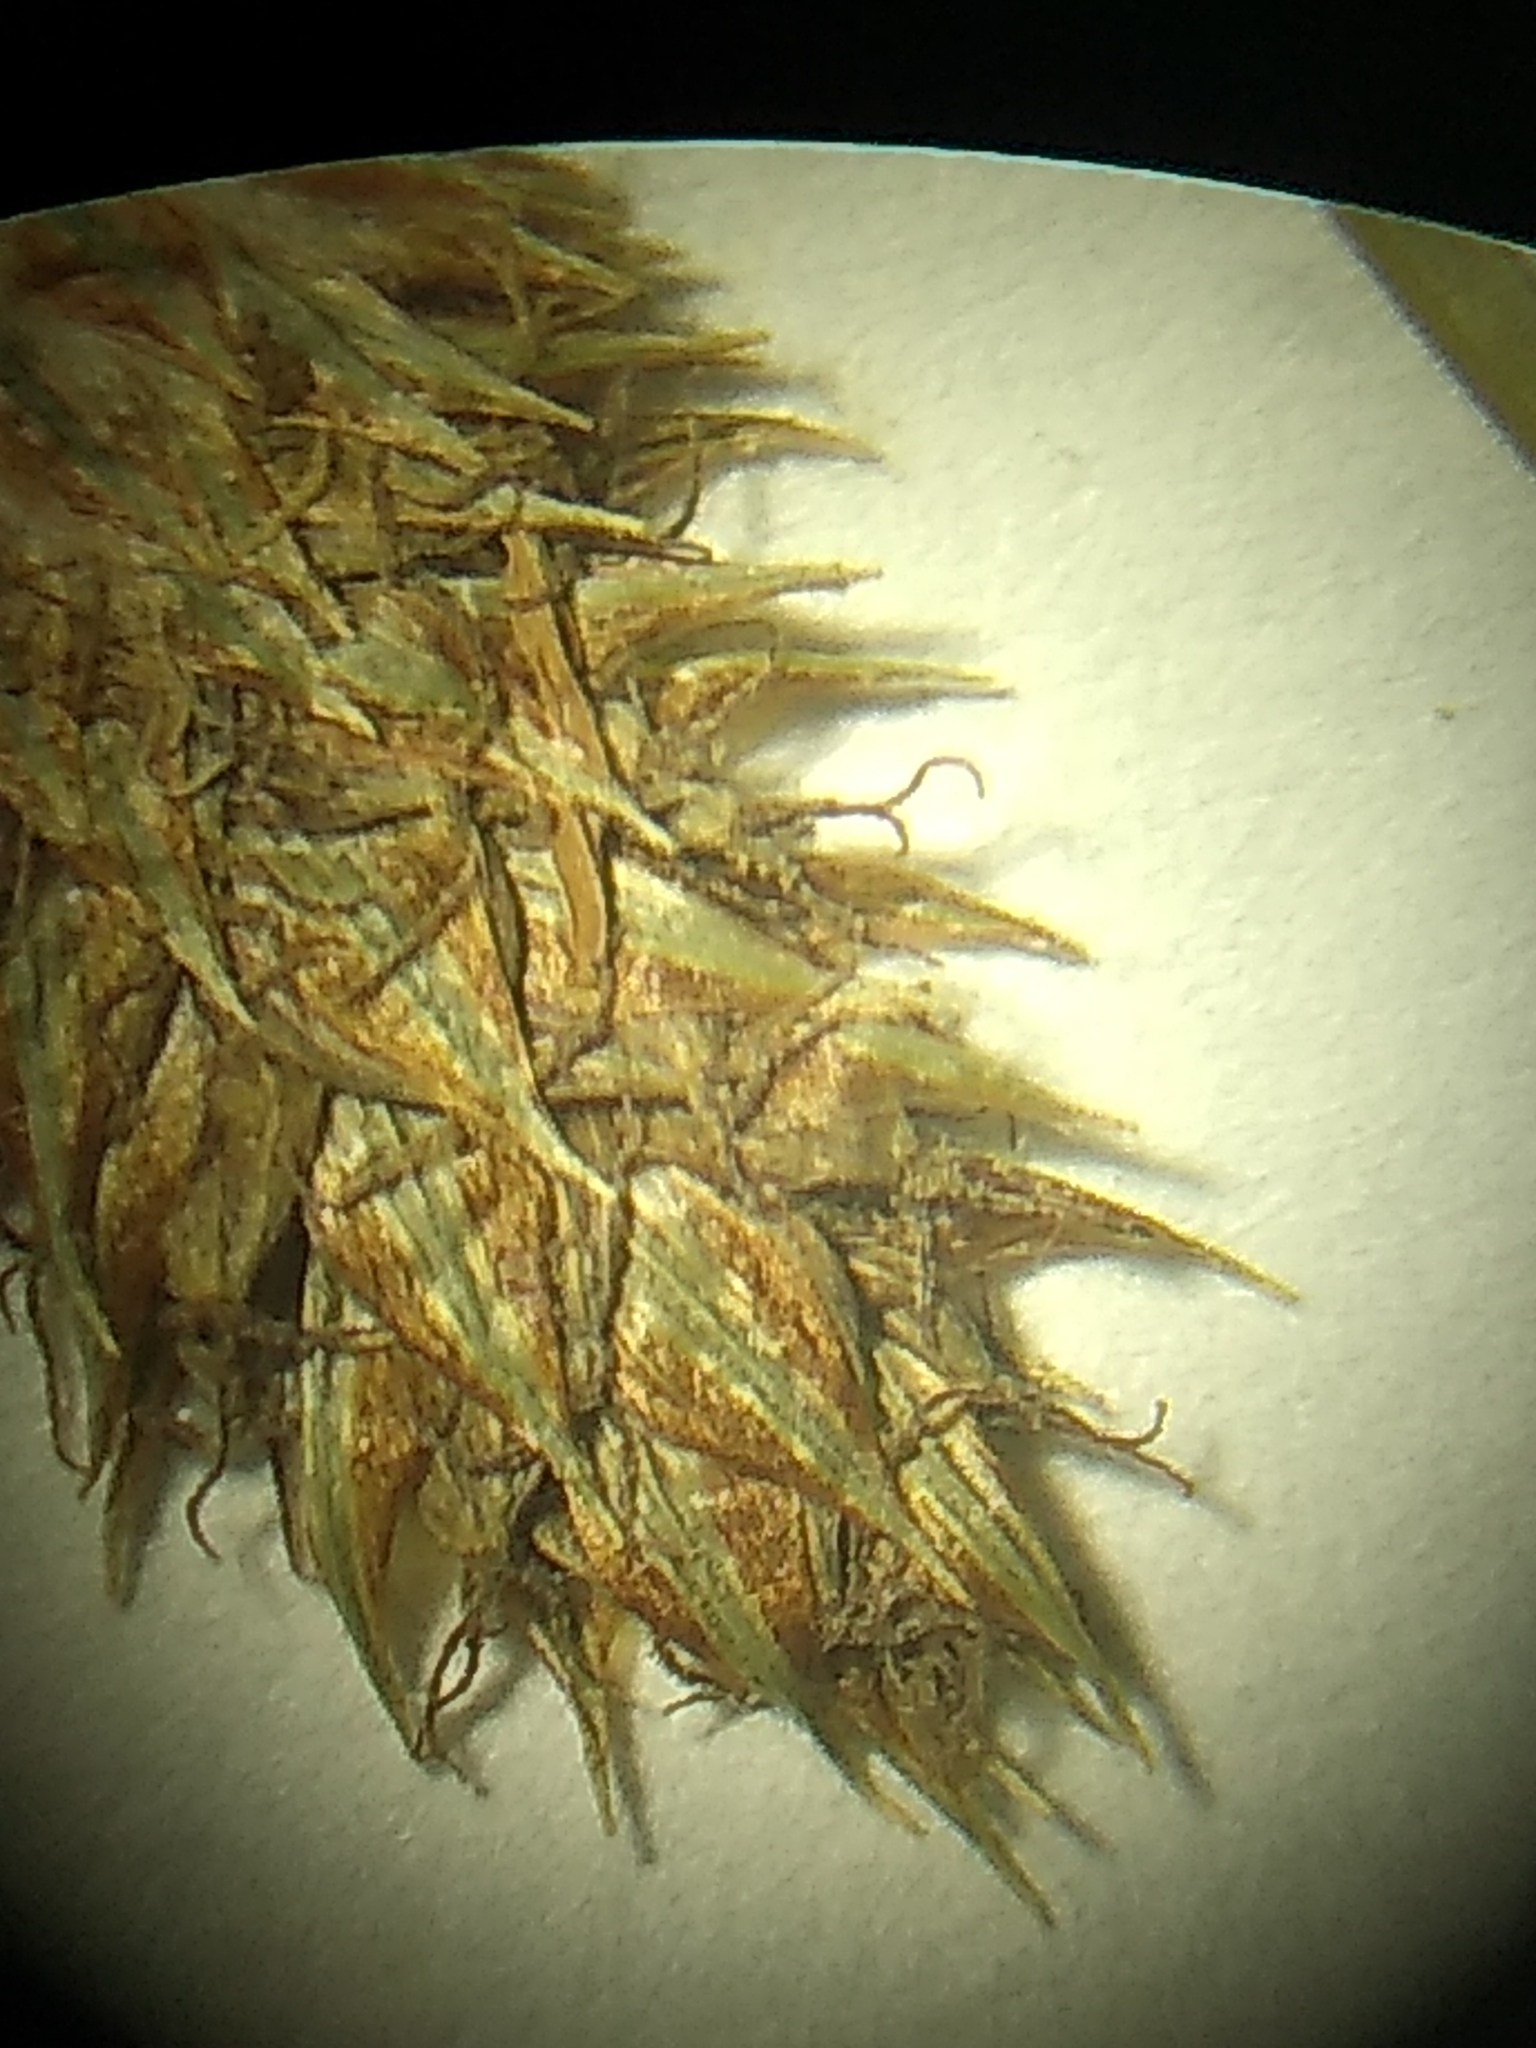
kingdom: Plantae
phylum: Tracheophyta
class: Liliopsida
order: Poales
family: Cyperaceae
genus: Carex
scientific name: Carex bushii
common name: Bush's sedge
